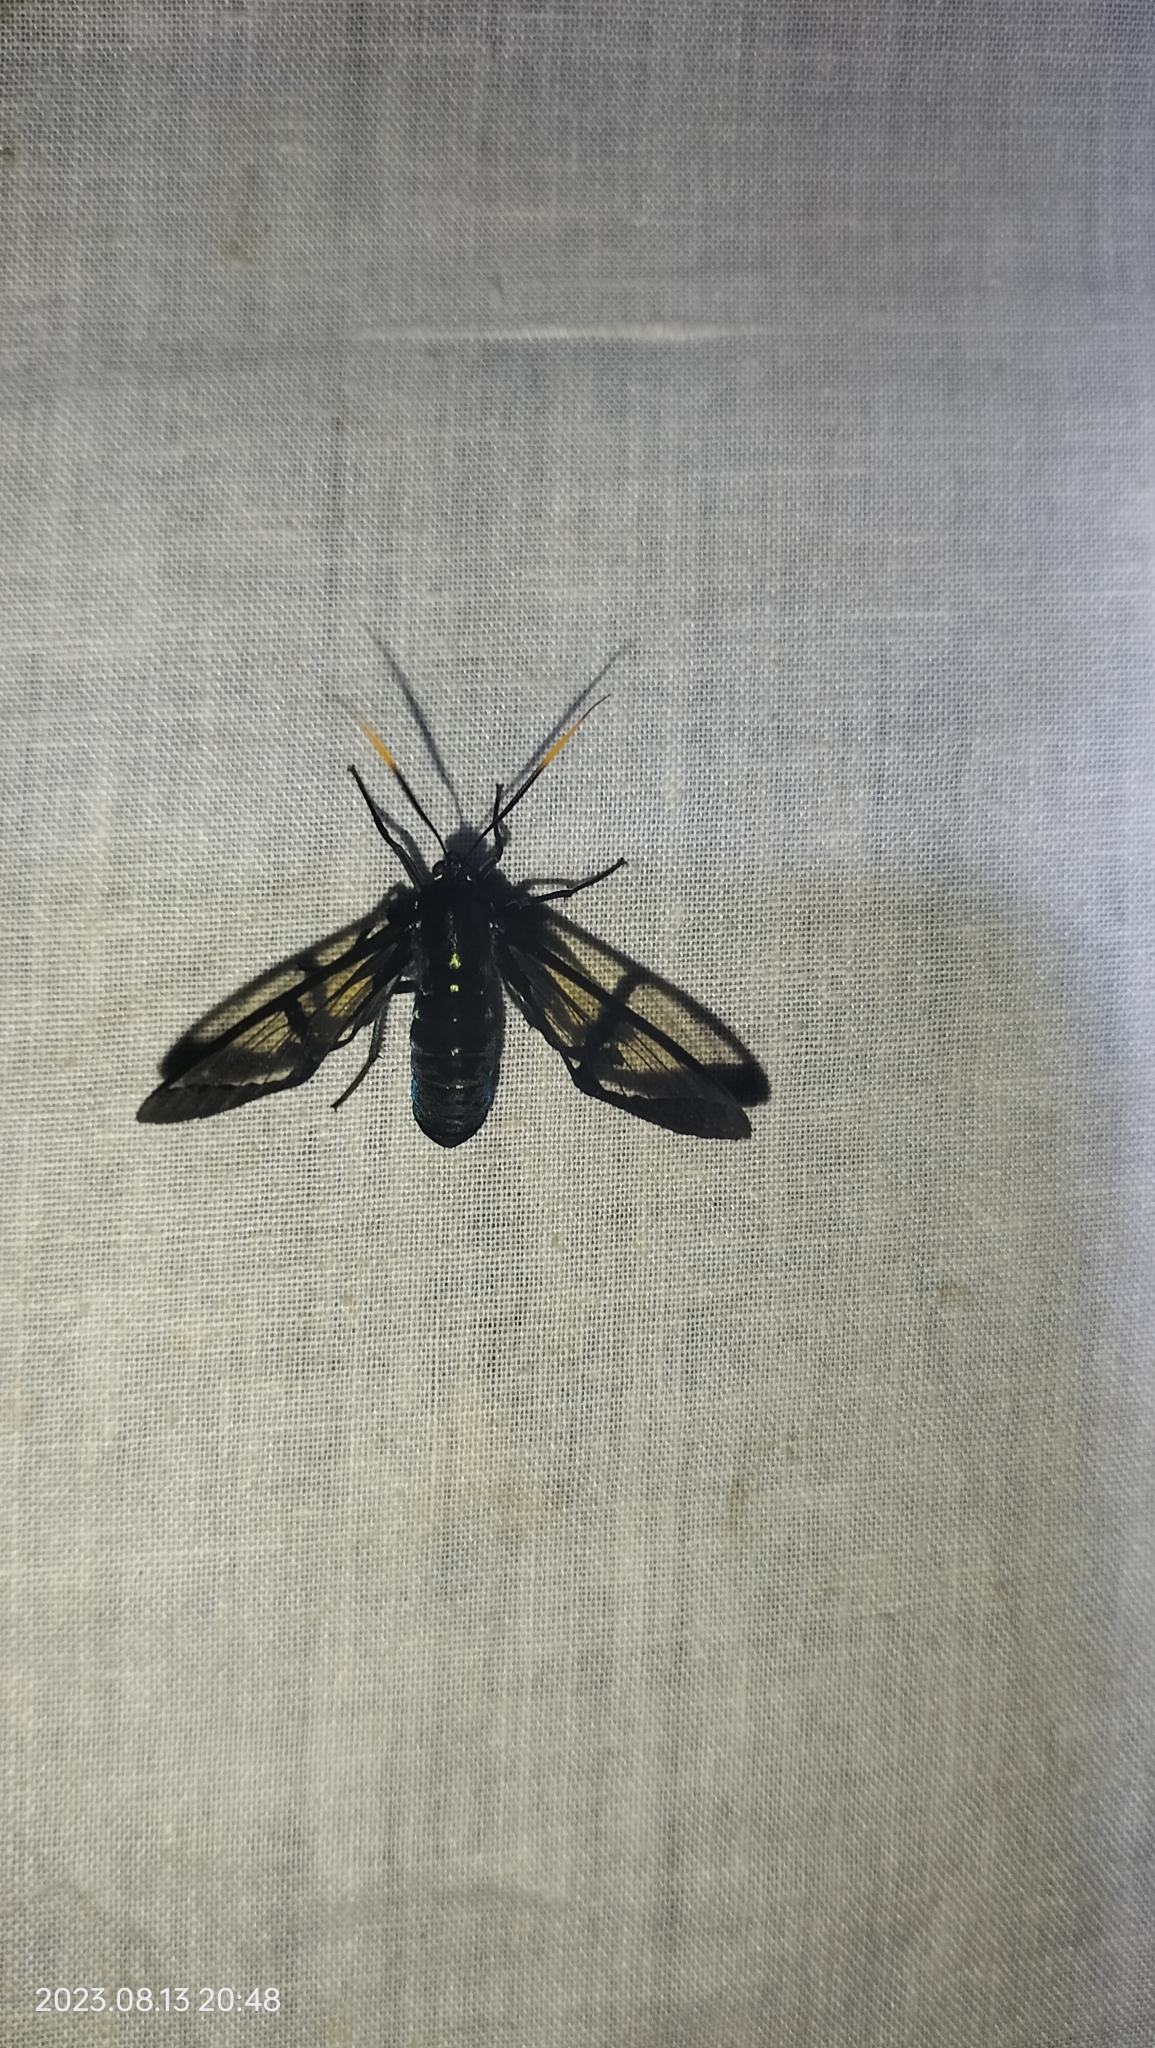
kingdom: Animalia
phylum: Arthropoda
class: Insecta
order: Lepidoptera
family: Erebidae
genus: Nyridela
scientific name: Nyridela chalciope
